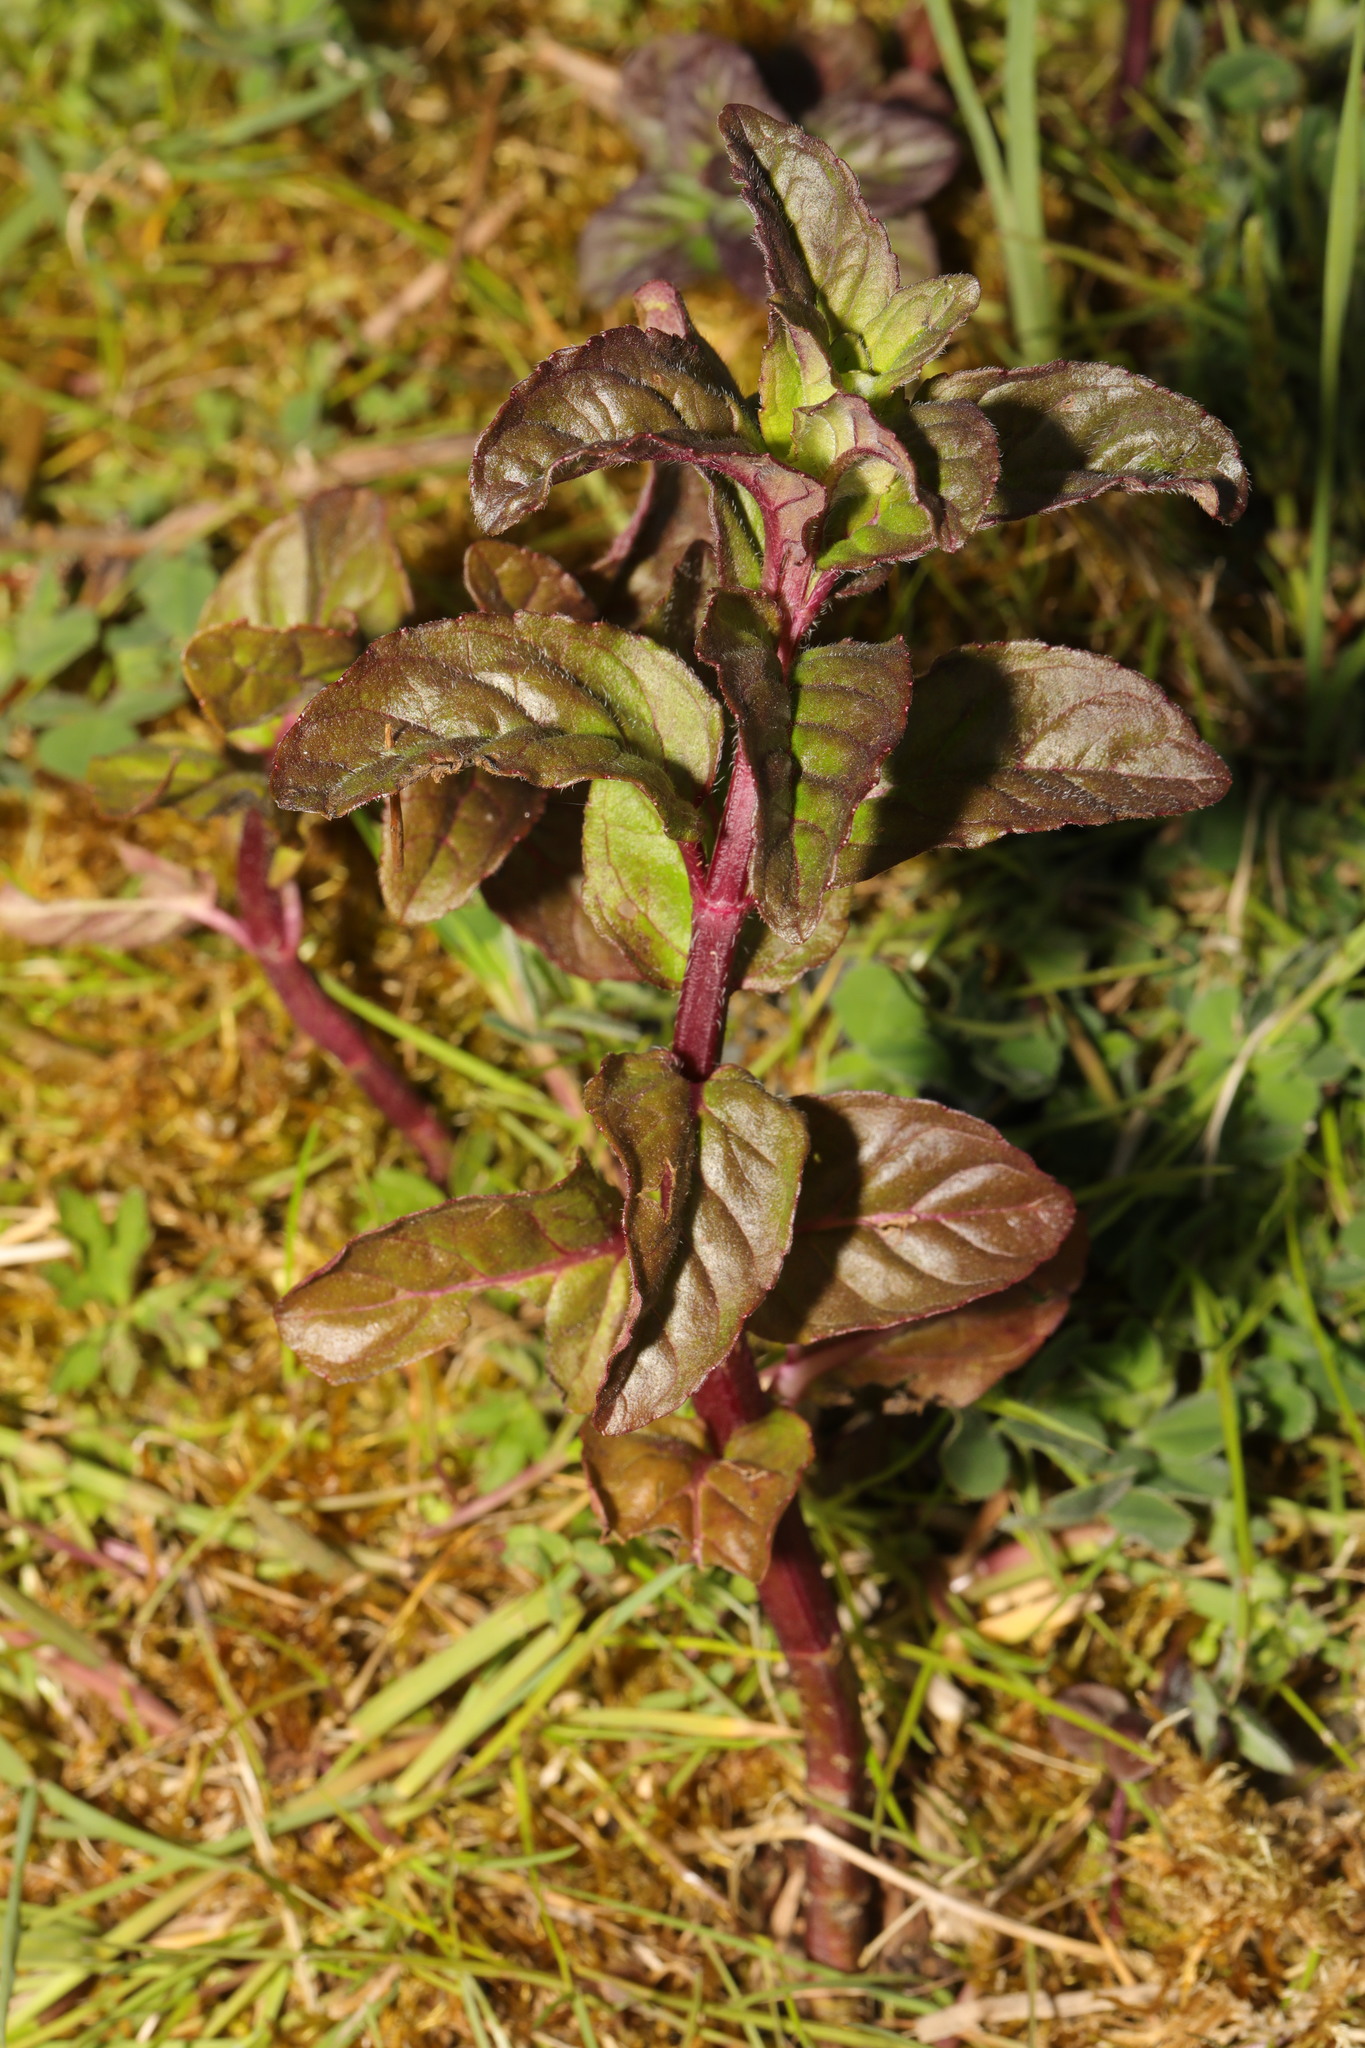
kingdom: Plantae
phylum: Tracheophyta
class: Magnoliopsida
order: Lamiales
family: Lamiaceae
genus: Mentha
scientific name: Mentha aquatica
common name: Water mint
